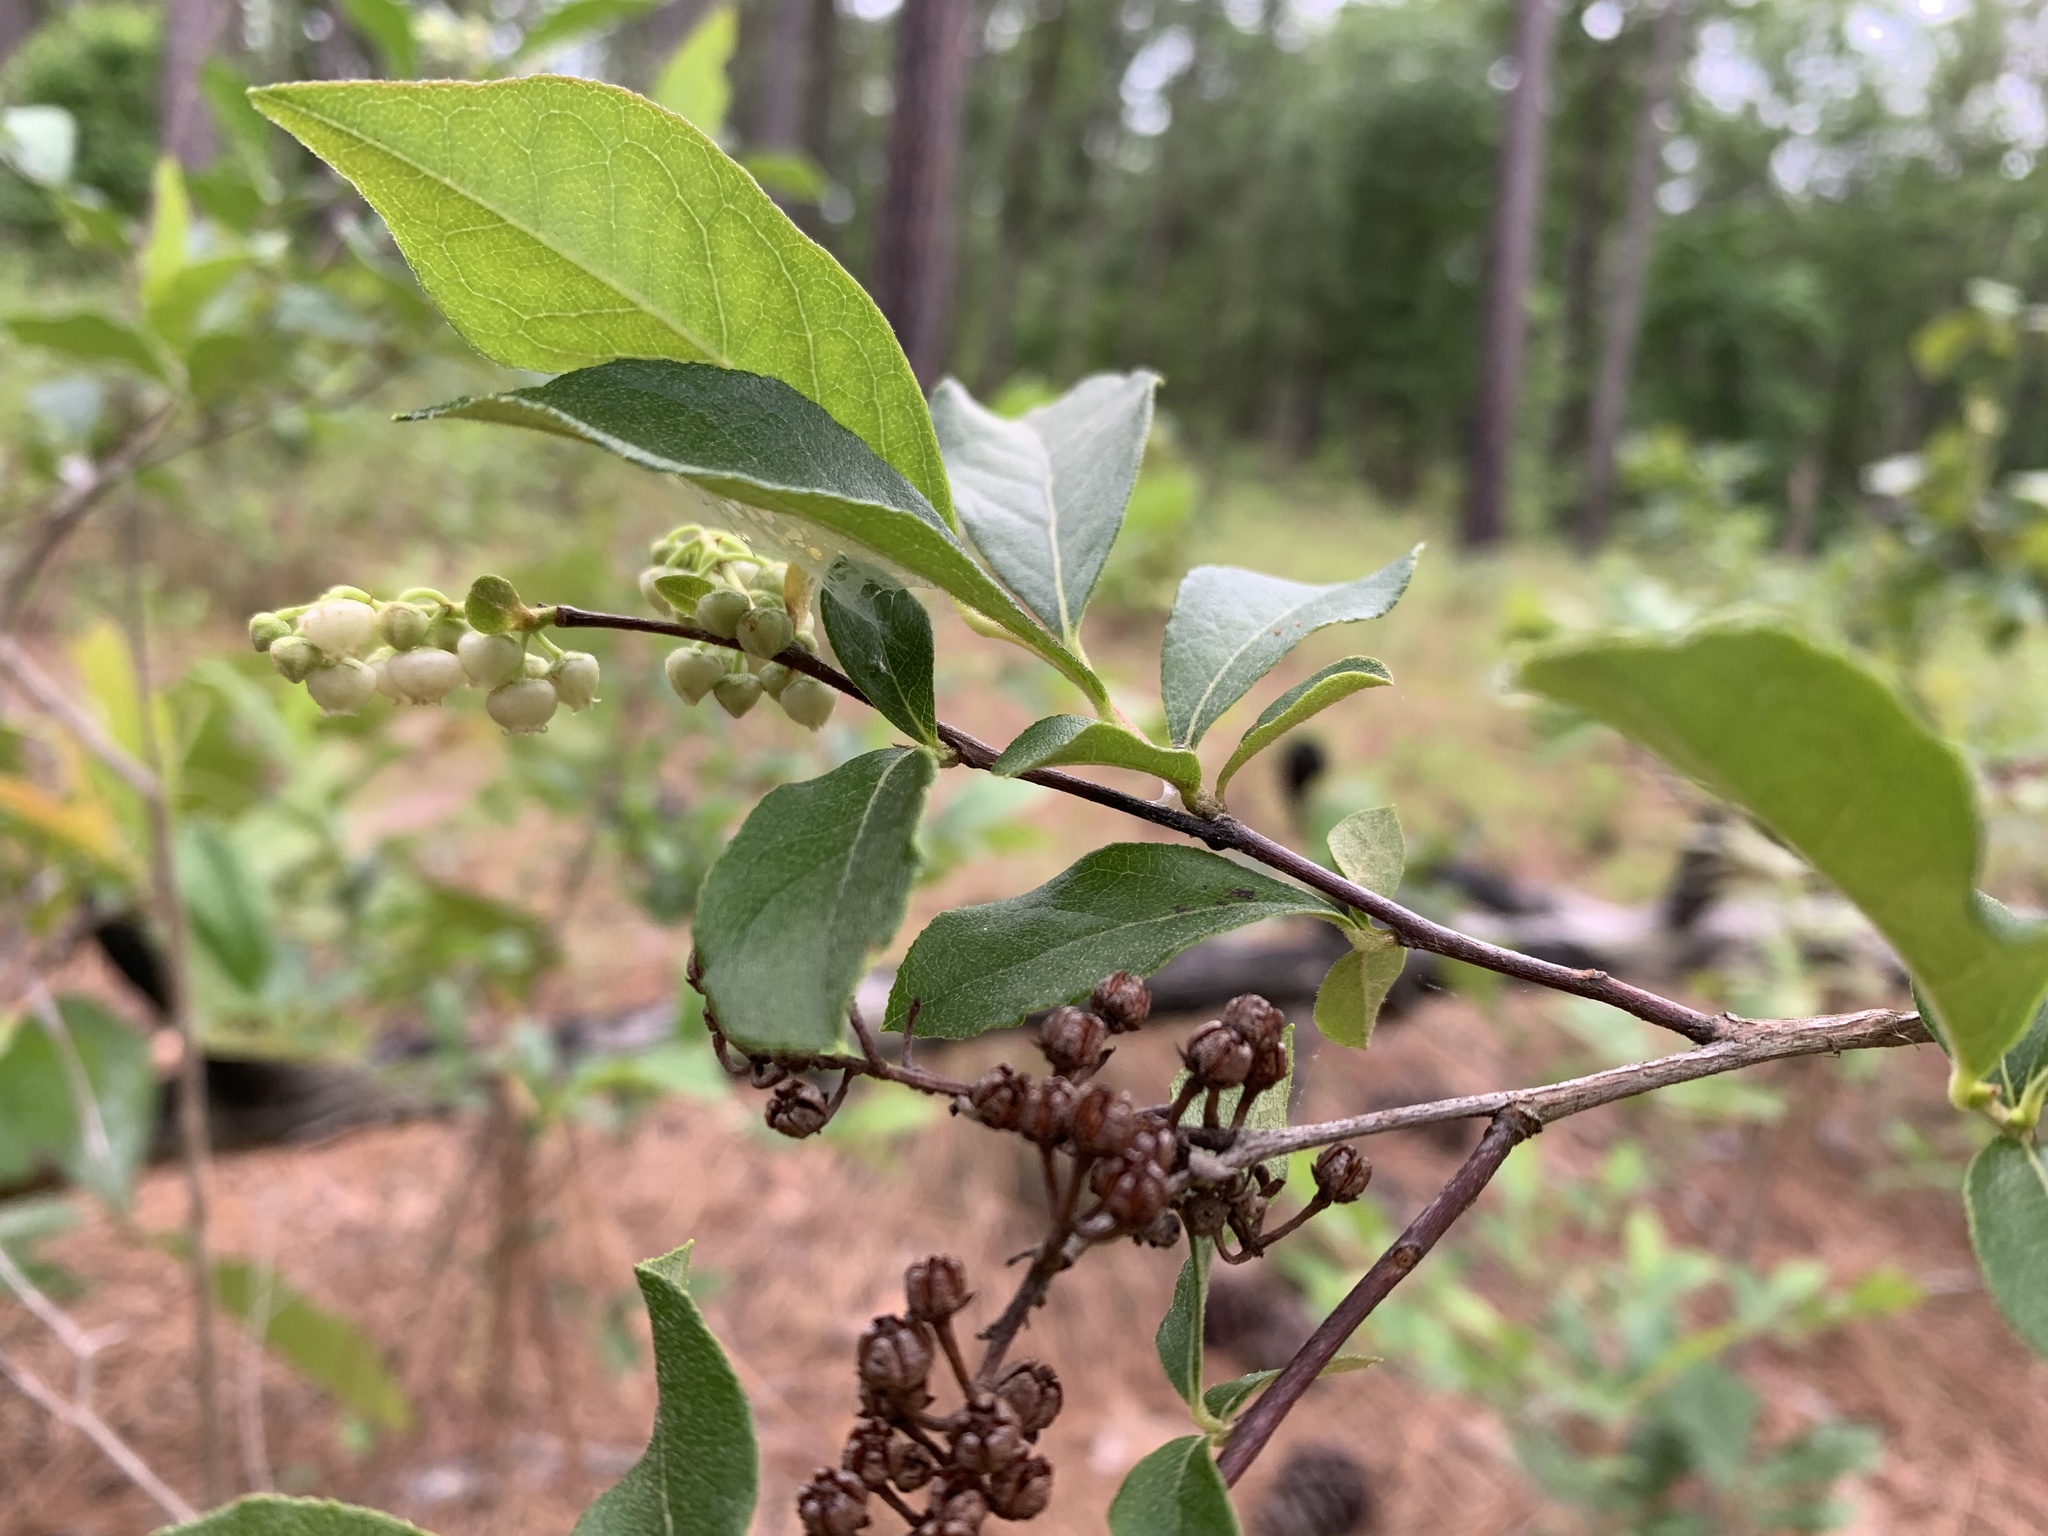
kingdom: Plantae
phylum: Tracheophyta
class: Magnoliopsida
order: Ericales
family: Ericaceae
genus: Lyonia
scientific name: Lyonia ligustrina
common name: Maleberry
